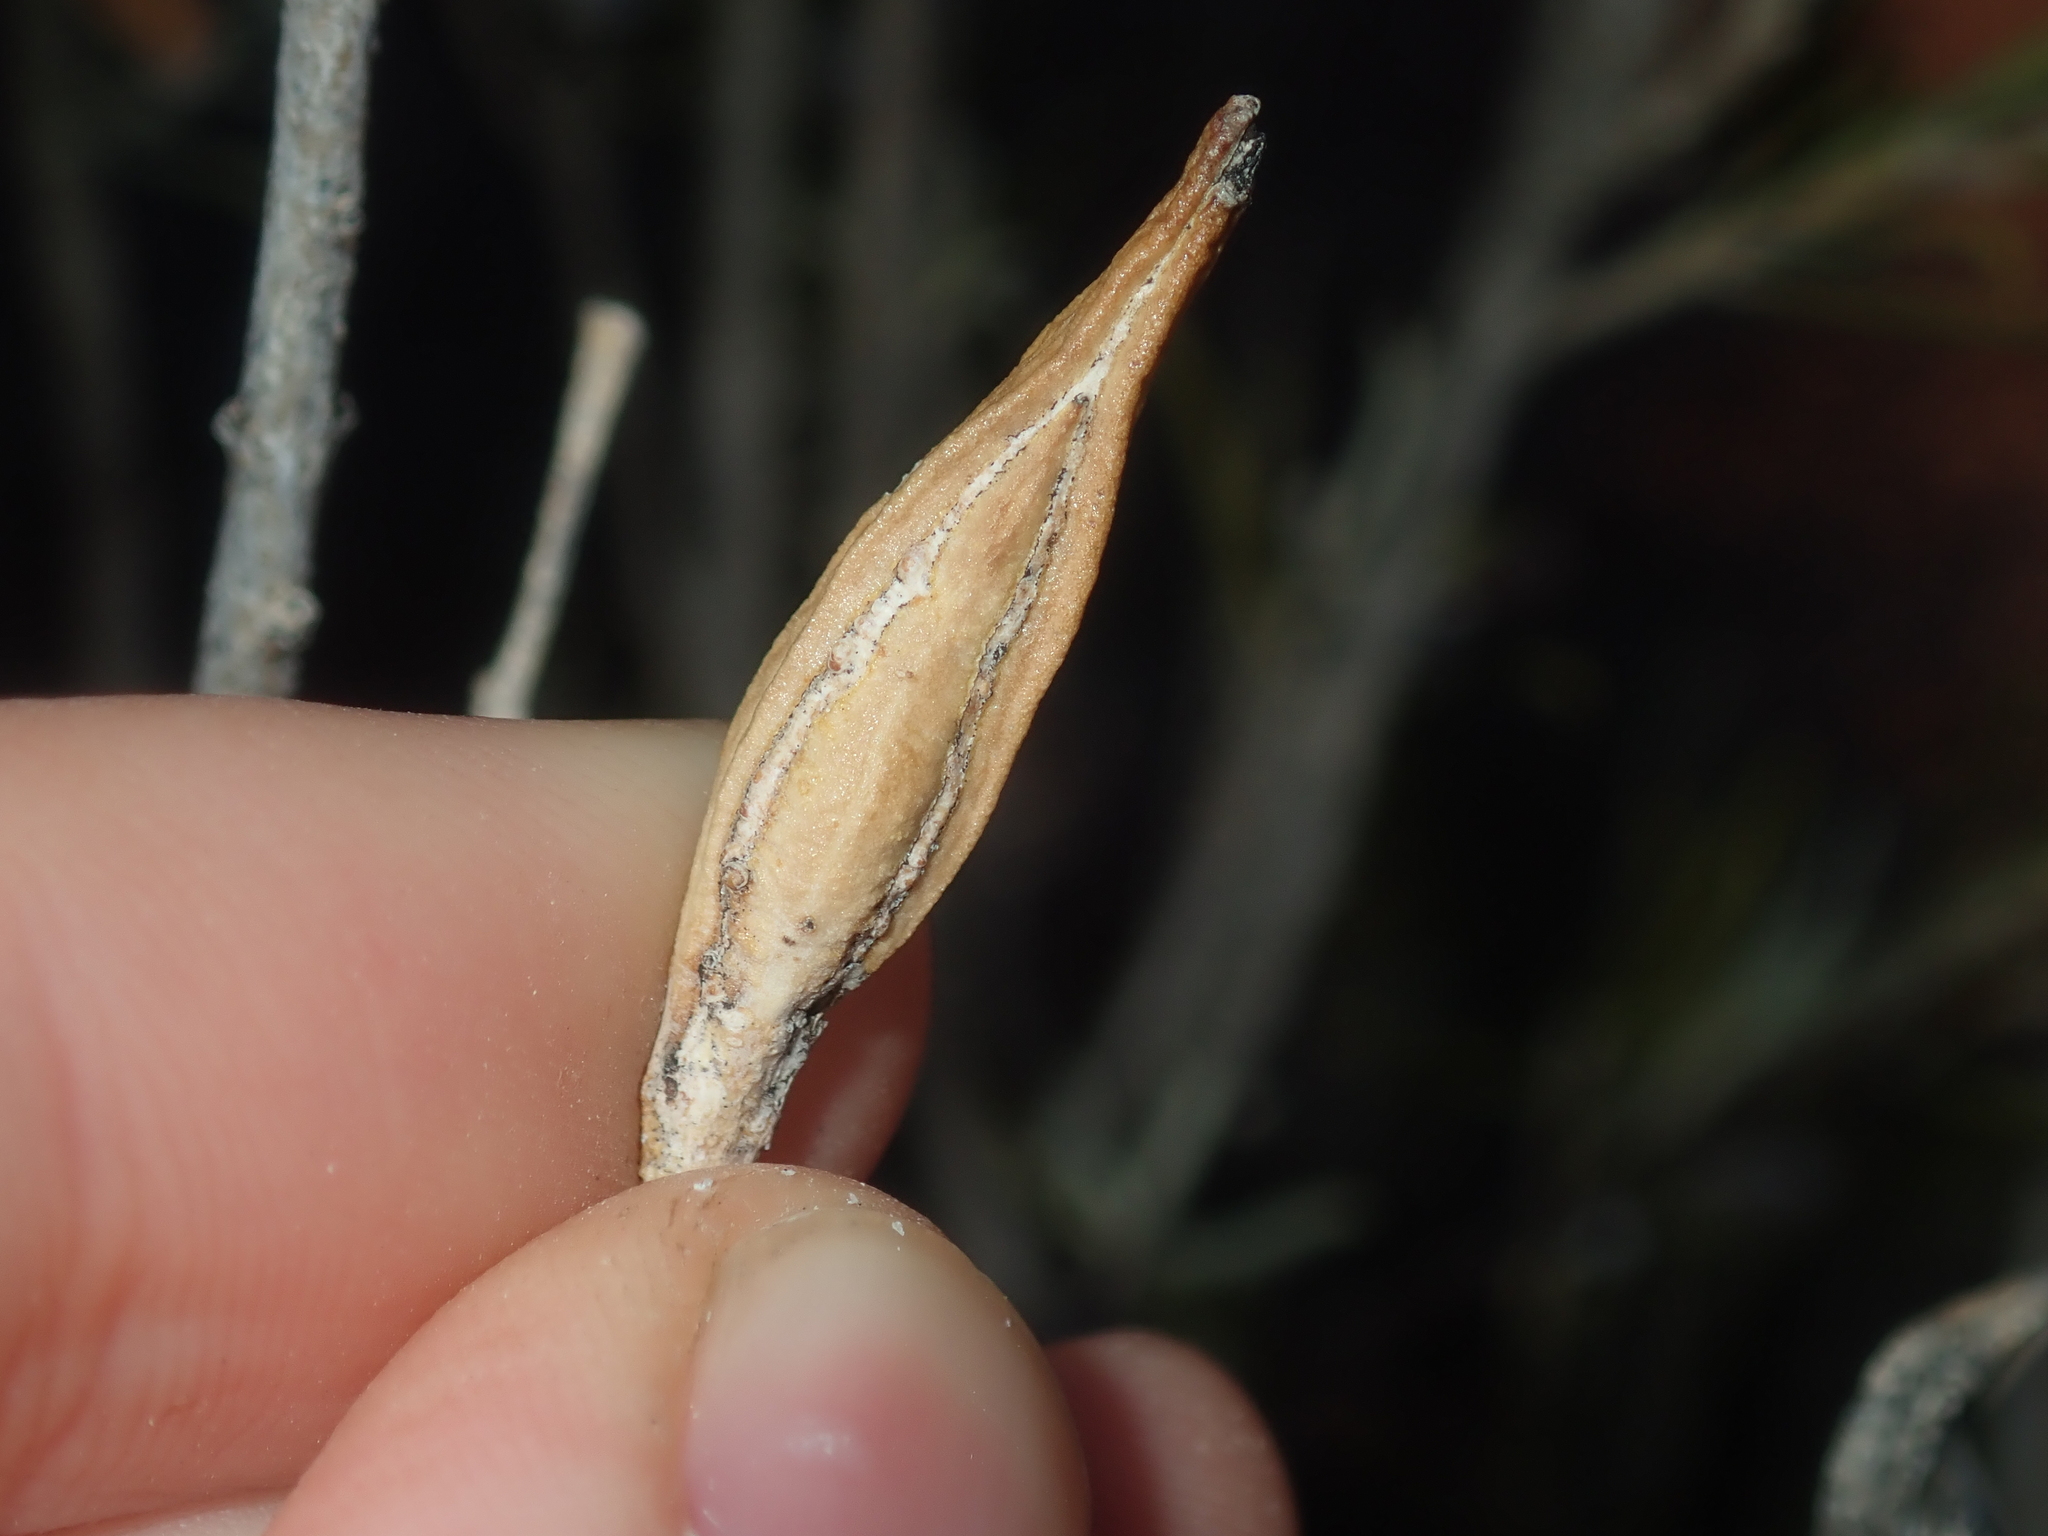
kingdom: Plantae
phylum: Tracheophyta
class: Magnoliopsida
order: Lamiales
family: Scrophulariaceae
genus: Eremophila
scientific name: Eremophila youngii
